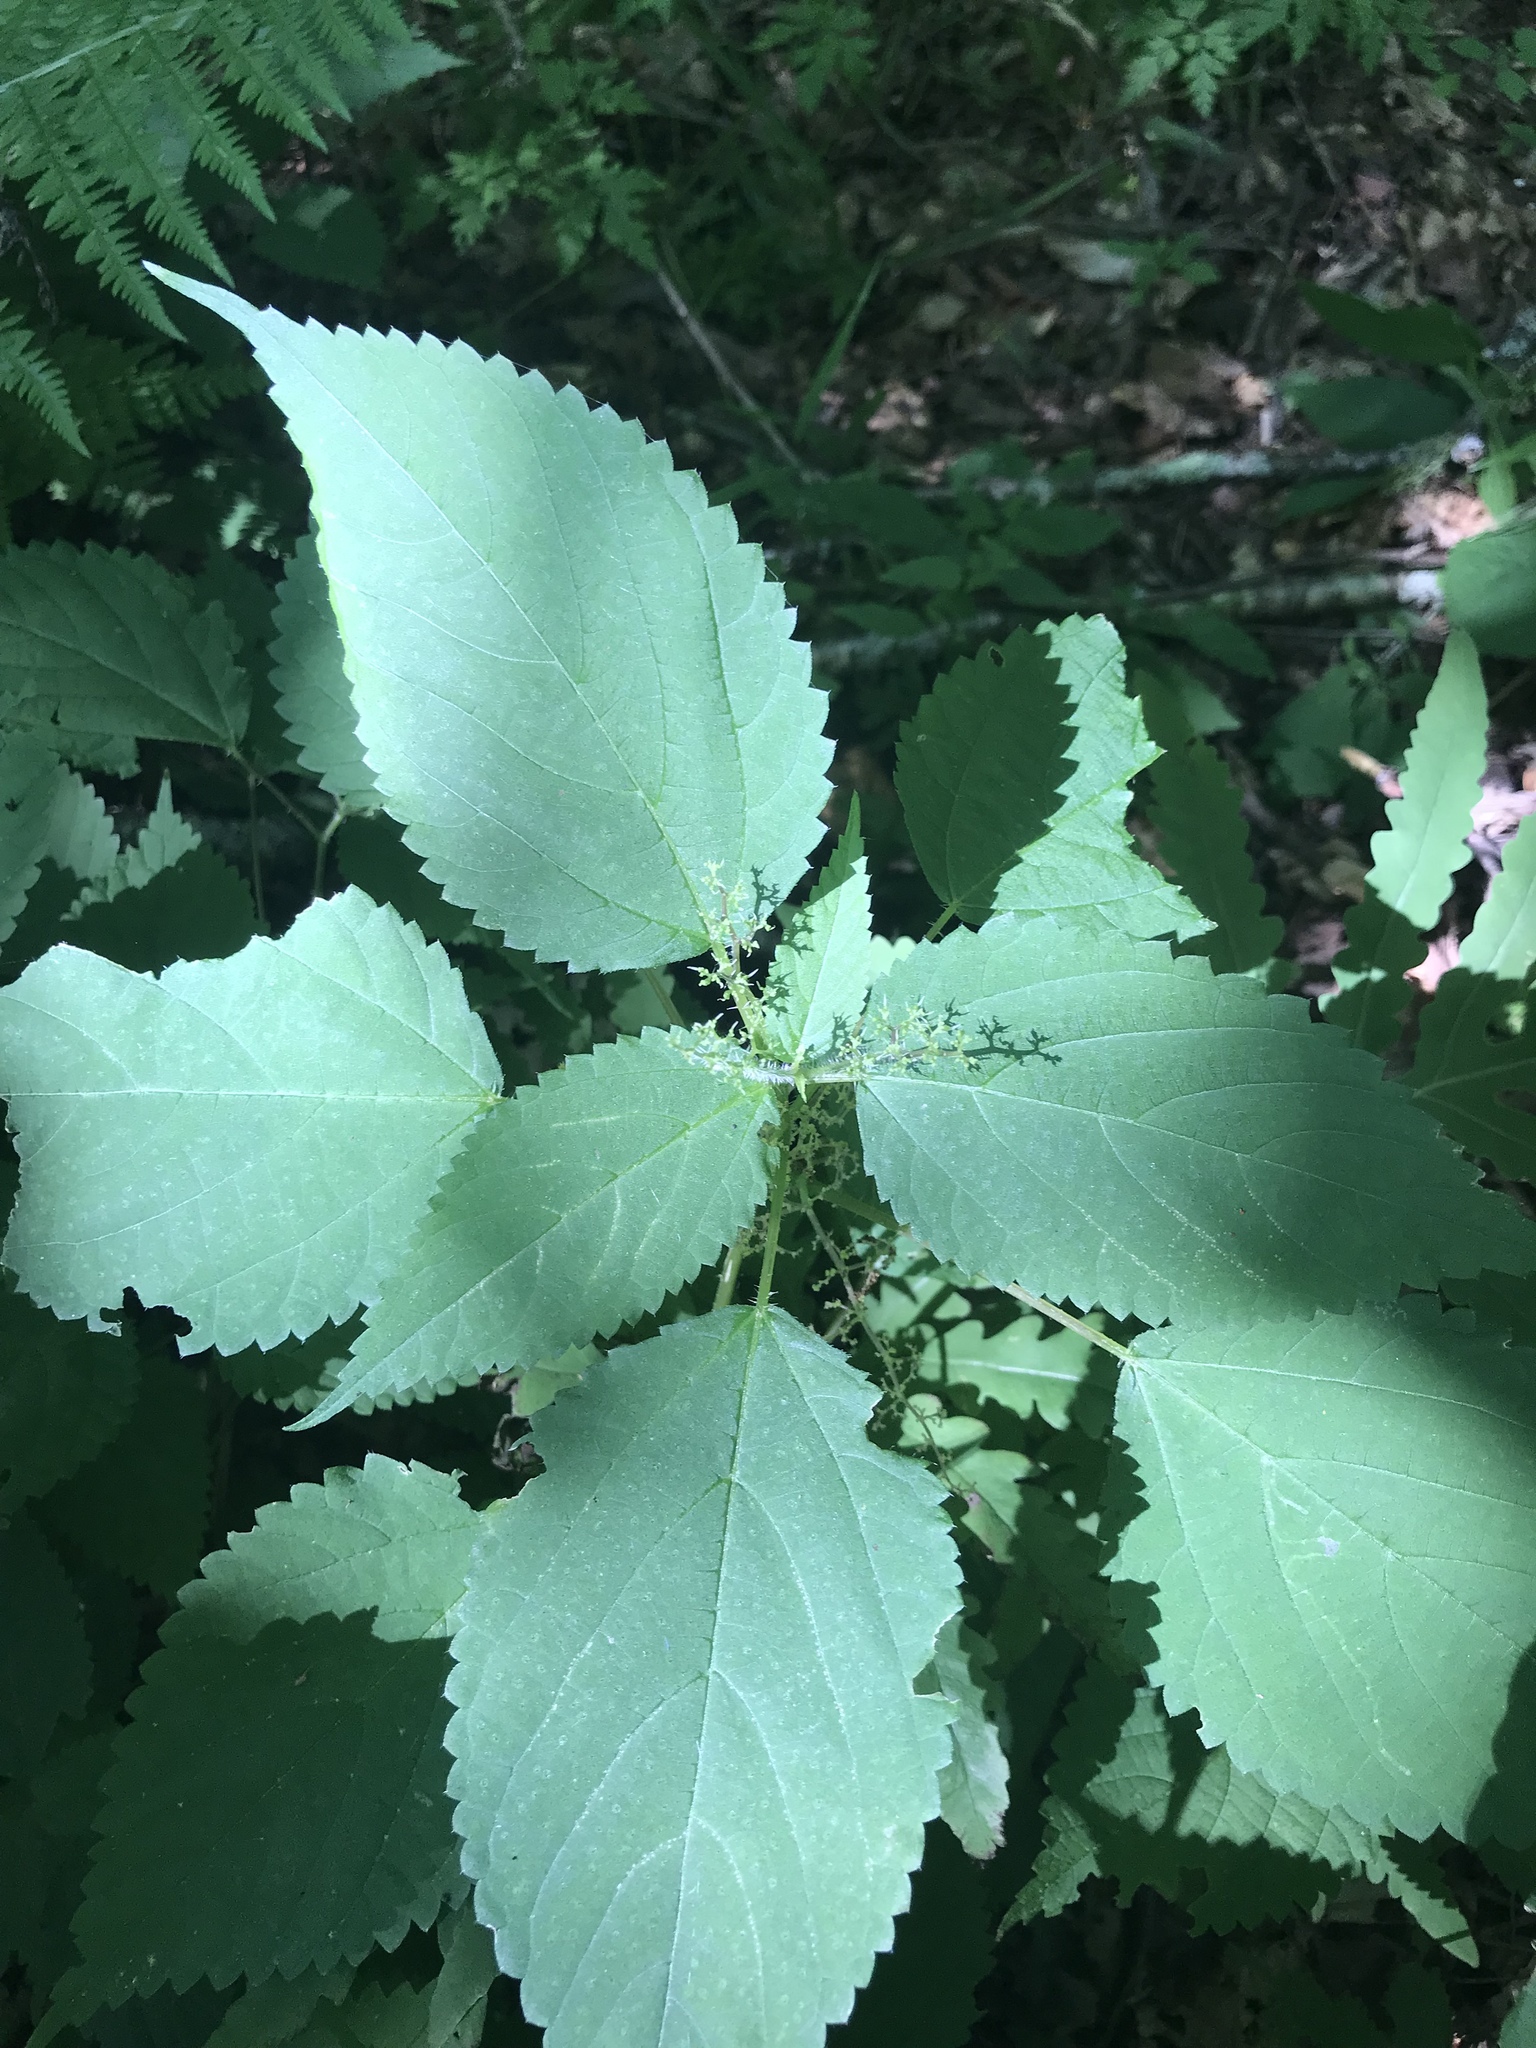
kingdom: Plantae
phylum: Tracheophyta
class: Magnoliopsida
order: Rosales
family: Urticaceae
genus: Laportea
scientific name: Laportea canadensis
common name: Canada nettle
